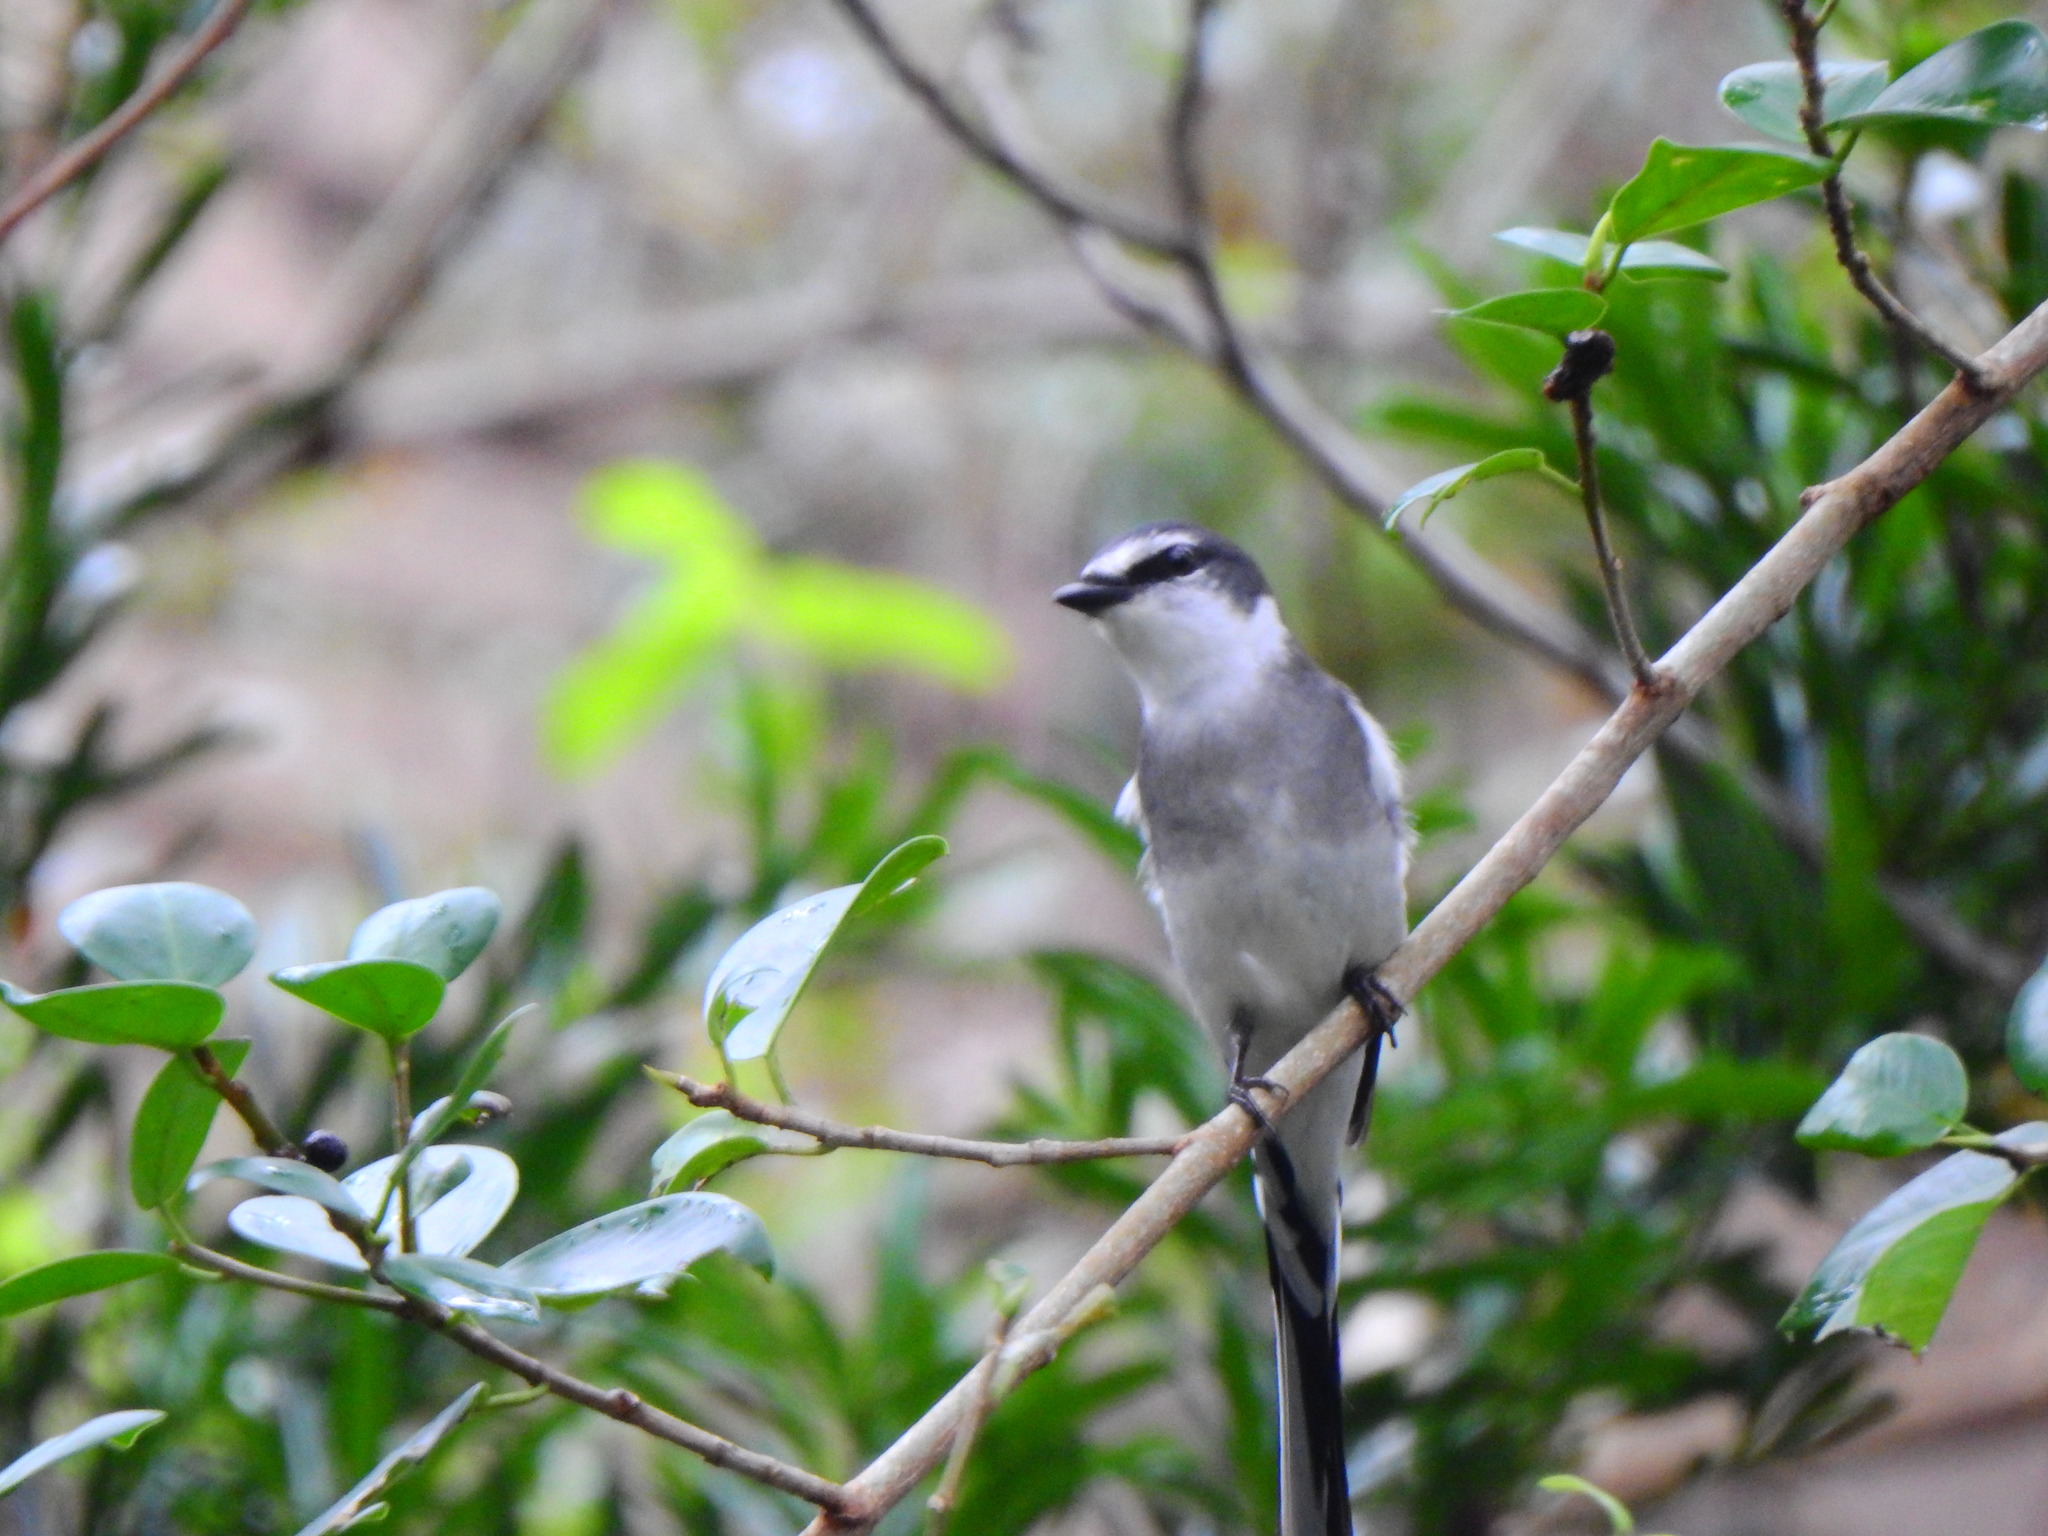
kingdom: Animalia
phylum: Chordata
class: Aves
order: Passeriformes
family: Campephagidae
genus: Pericrocotus
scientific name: Pericrocotus tegimae
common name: Ryukyu minivet
